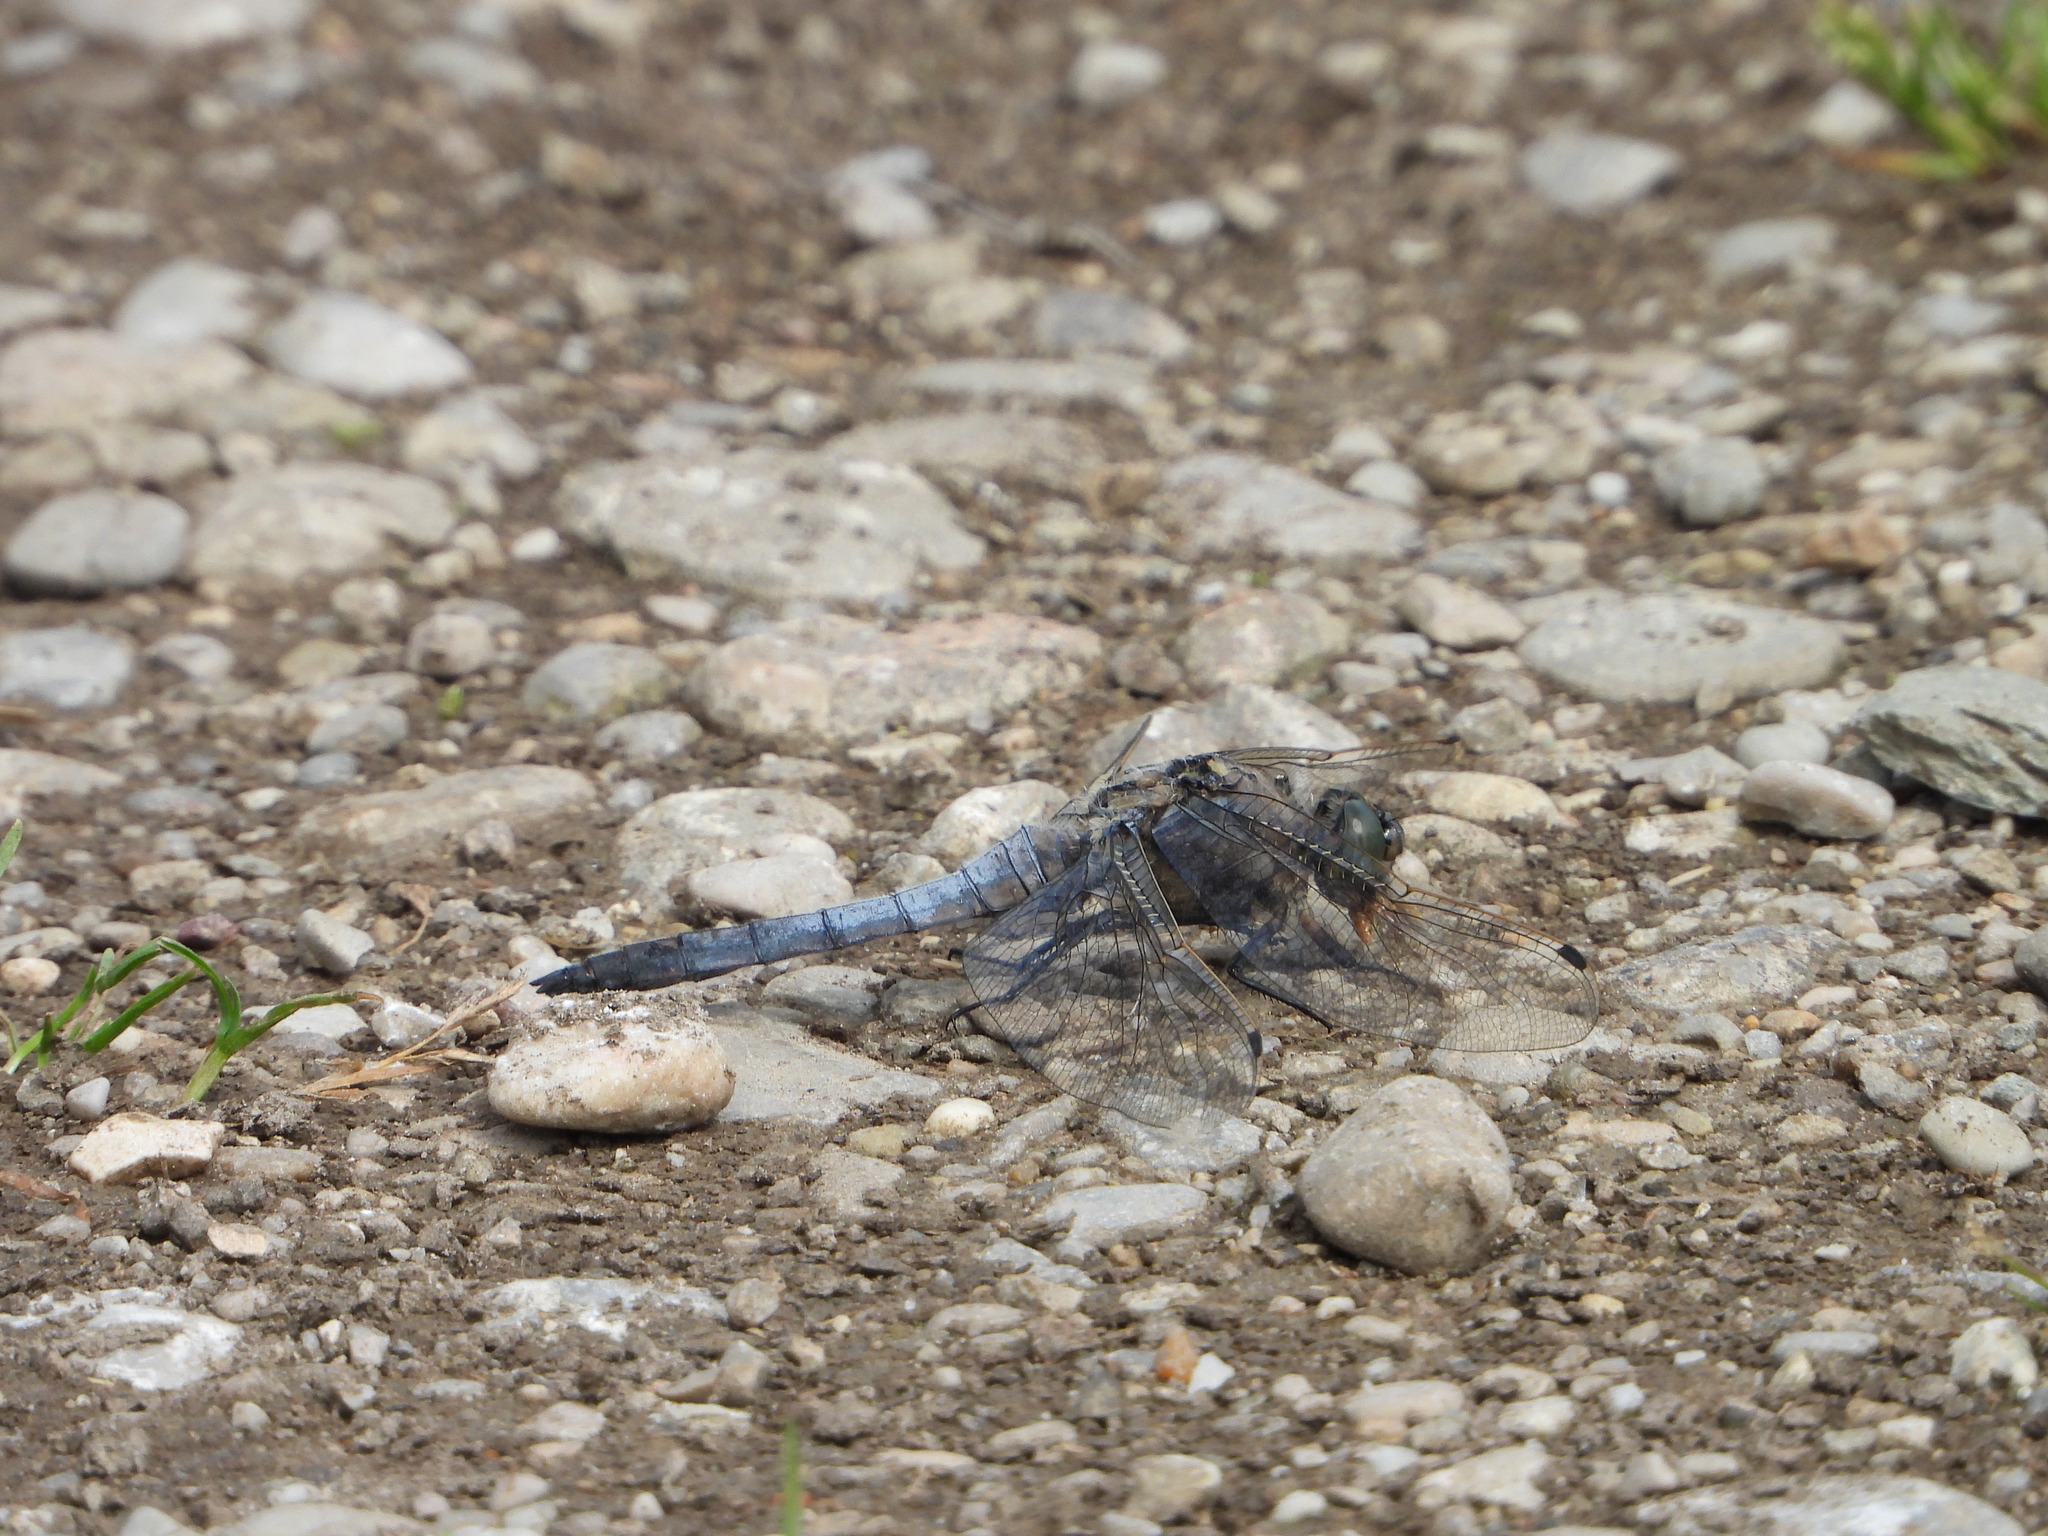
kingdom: Animalia
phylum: Arthropoda
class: Insecta
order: Odonata
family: Libellulidae
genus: Orthetrum
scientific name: Orthetrum cancellatum
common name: Black-tailed skimmer
